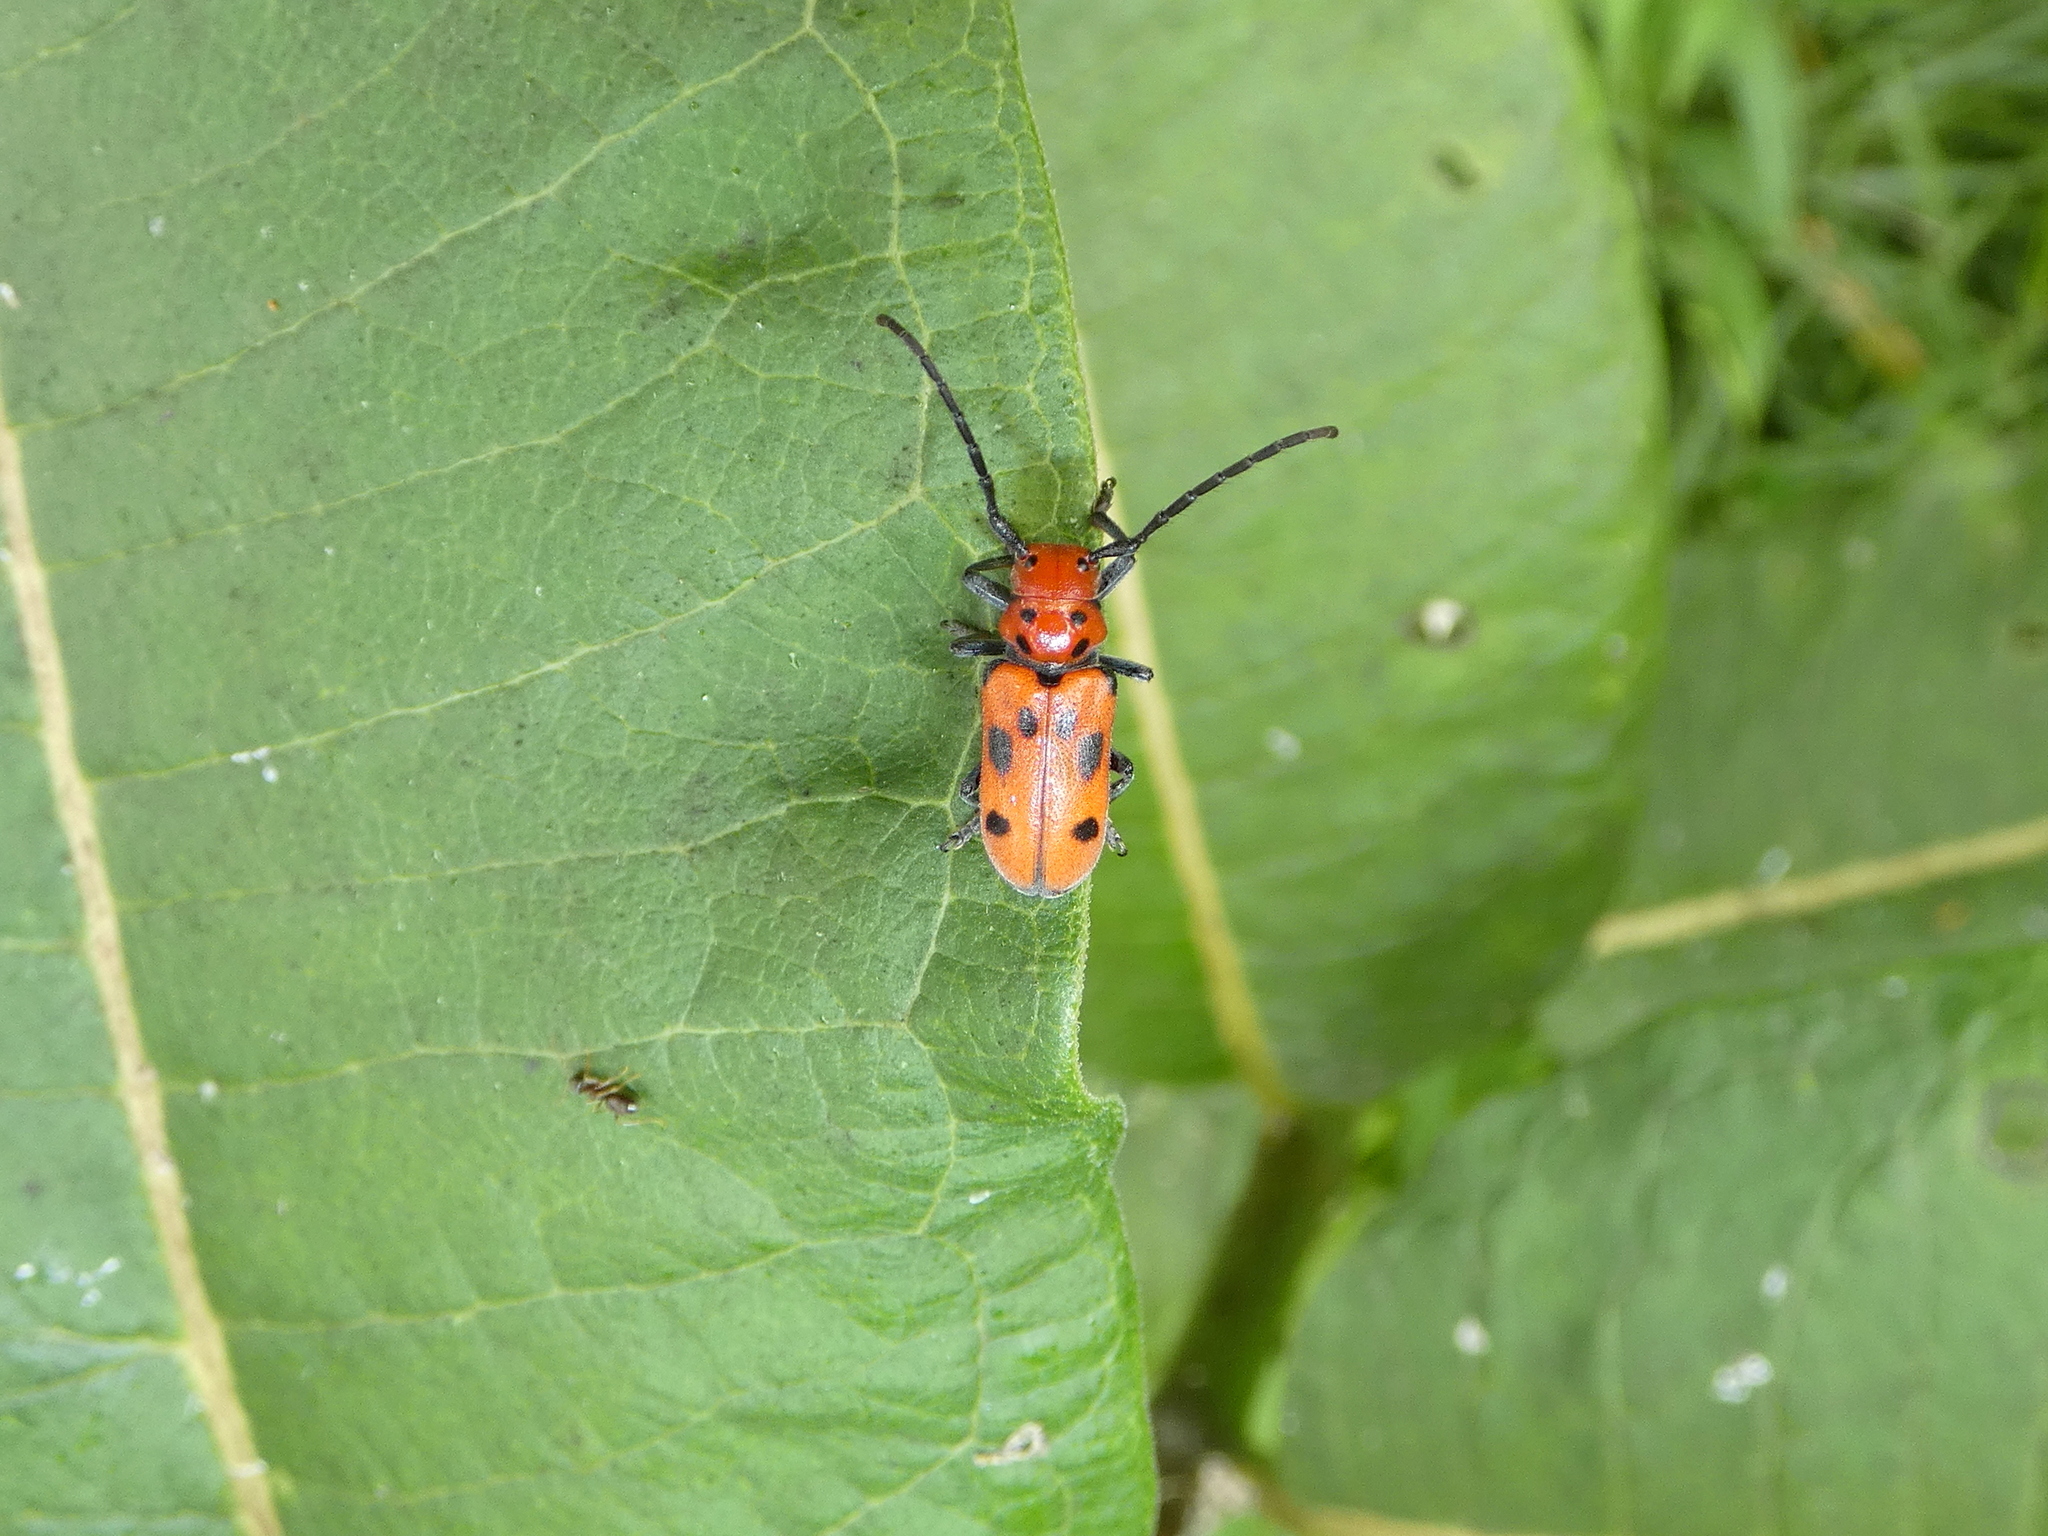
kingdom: Animalia
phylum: Arthropoda
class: Insecta
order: Coleoptera
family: Cerambycidae
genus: Tetraopes
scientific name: Tetraopes tetrophthalmus
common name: Red milkweed beetle
